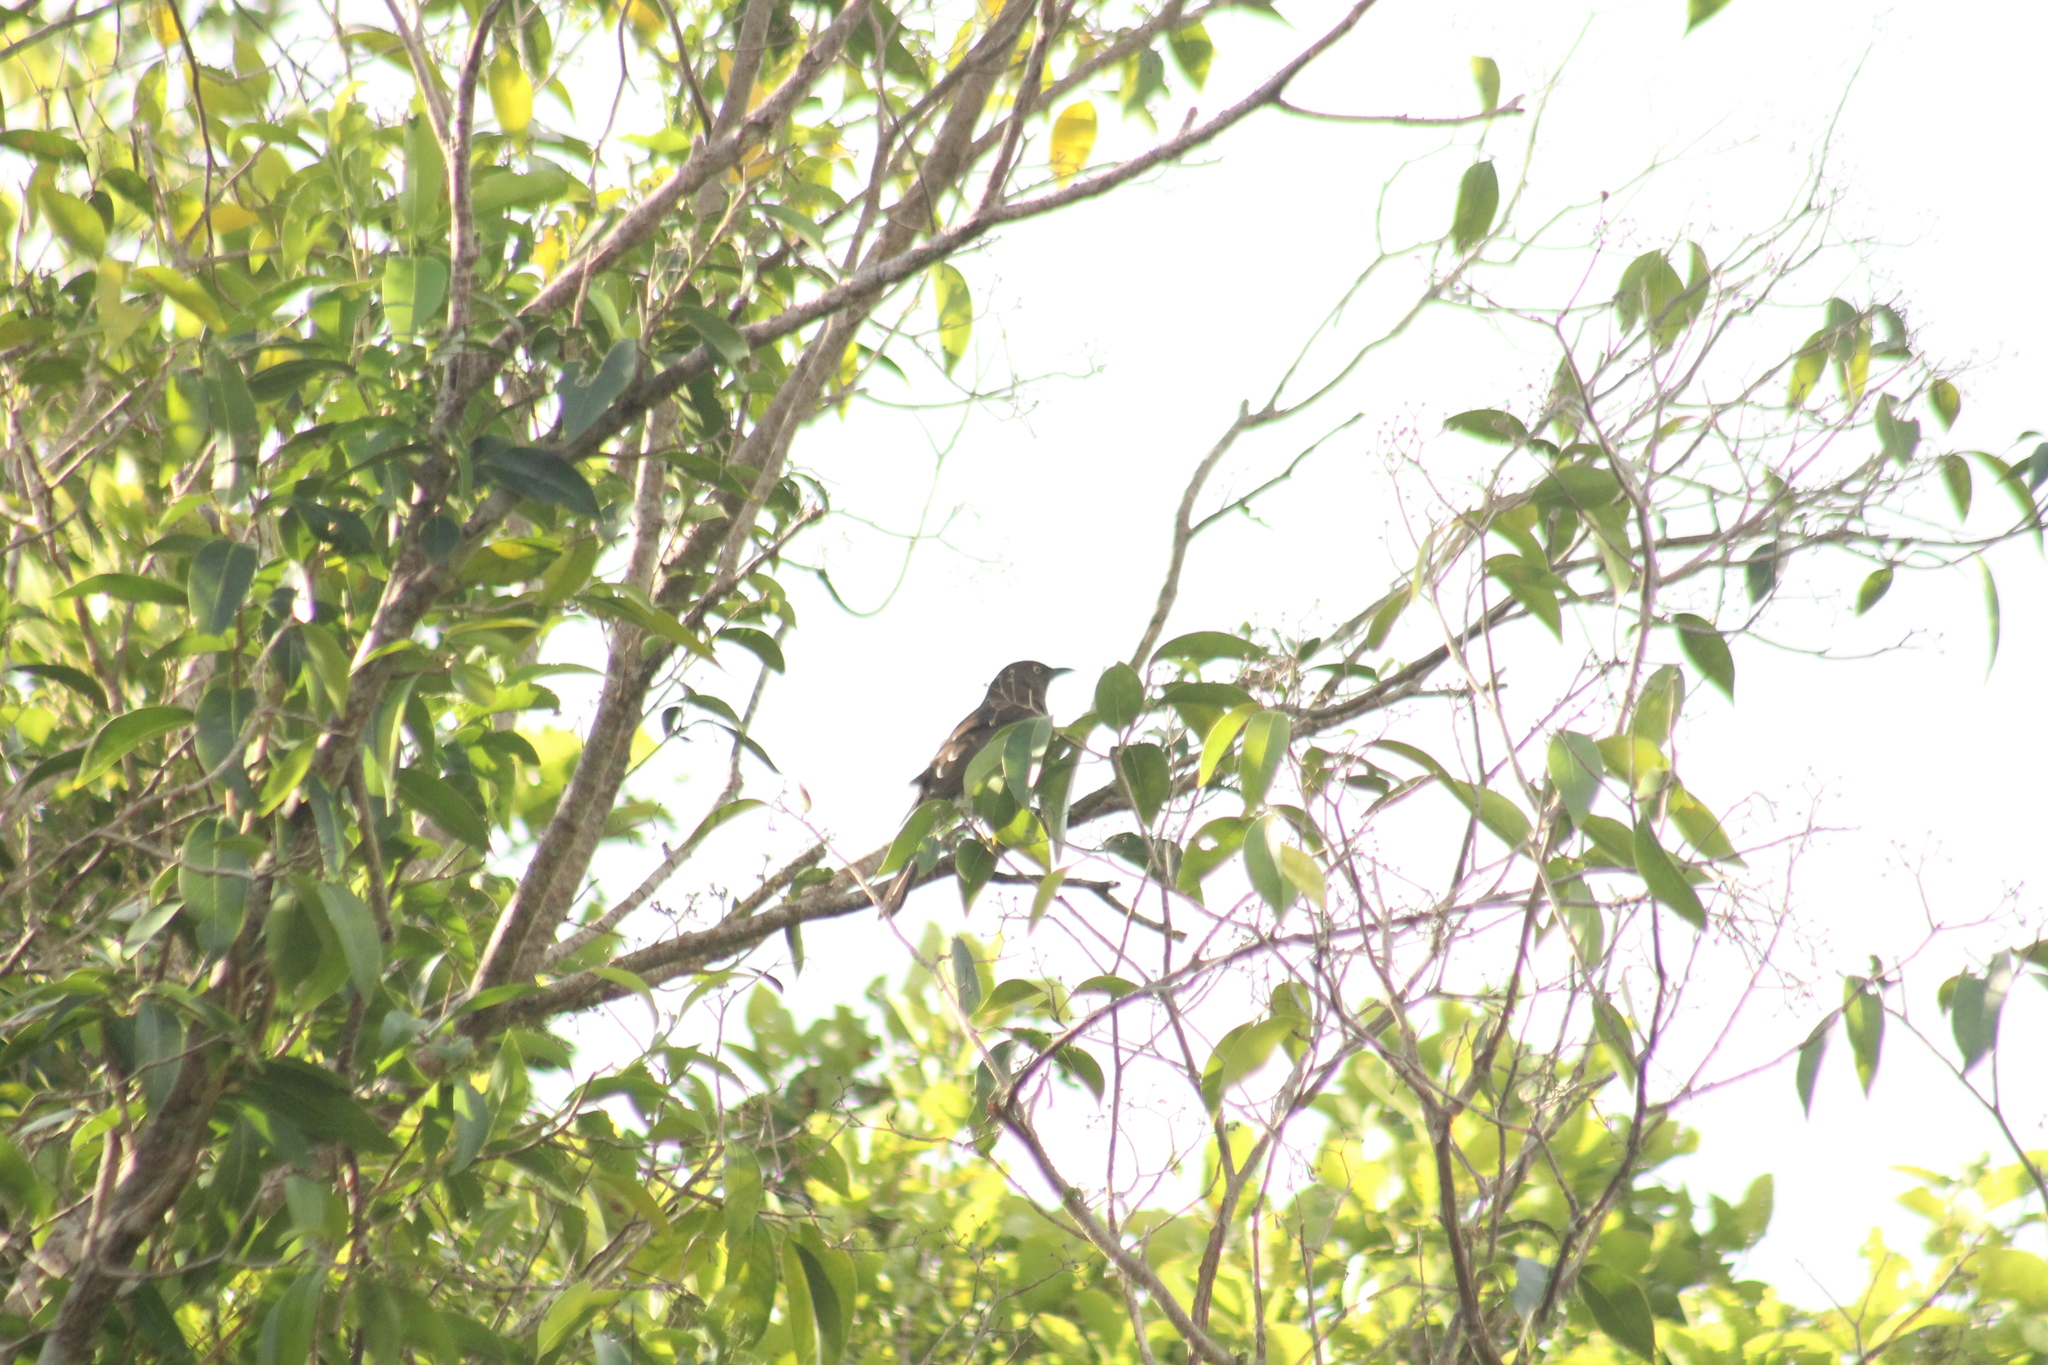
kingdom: Animalia
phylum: Chordata
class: Aves
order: Passeriformes
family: Mimidae
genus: Margarops
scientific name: Margarops fuscatus
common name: Pearly-eyed thrasher
